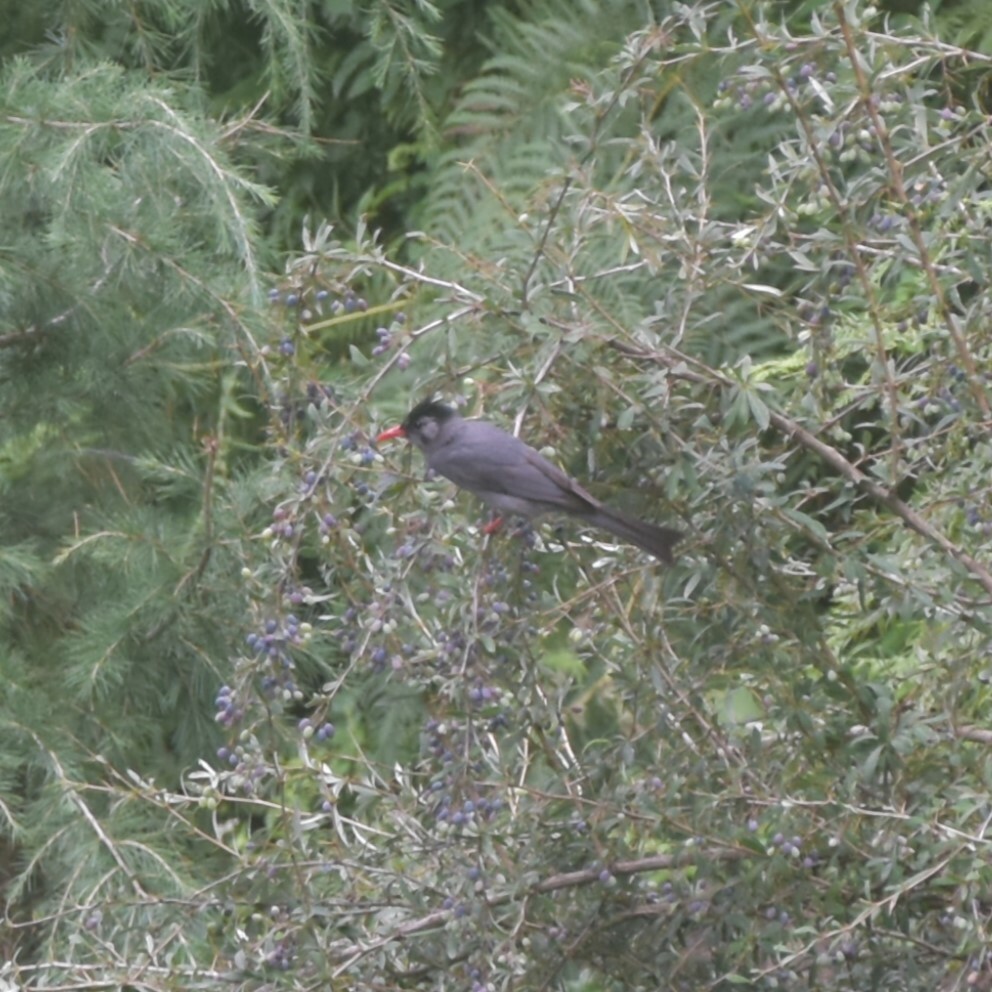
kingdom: Animalia
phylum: Chordata
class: Aves
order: Passeriformes
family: Pycnonotidae
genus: Hypsipetes
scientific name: Hypsipetes leucocephalus
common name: Black bulbul
